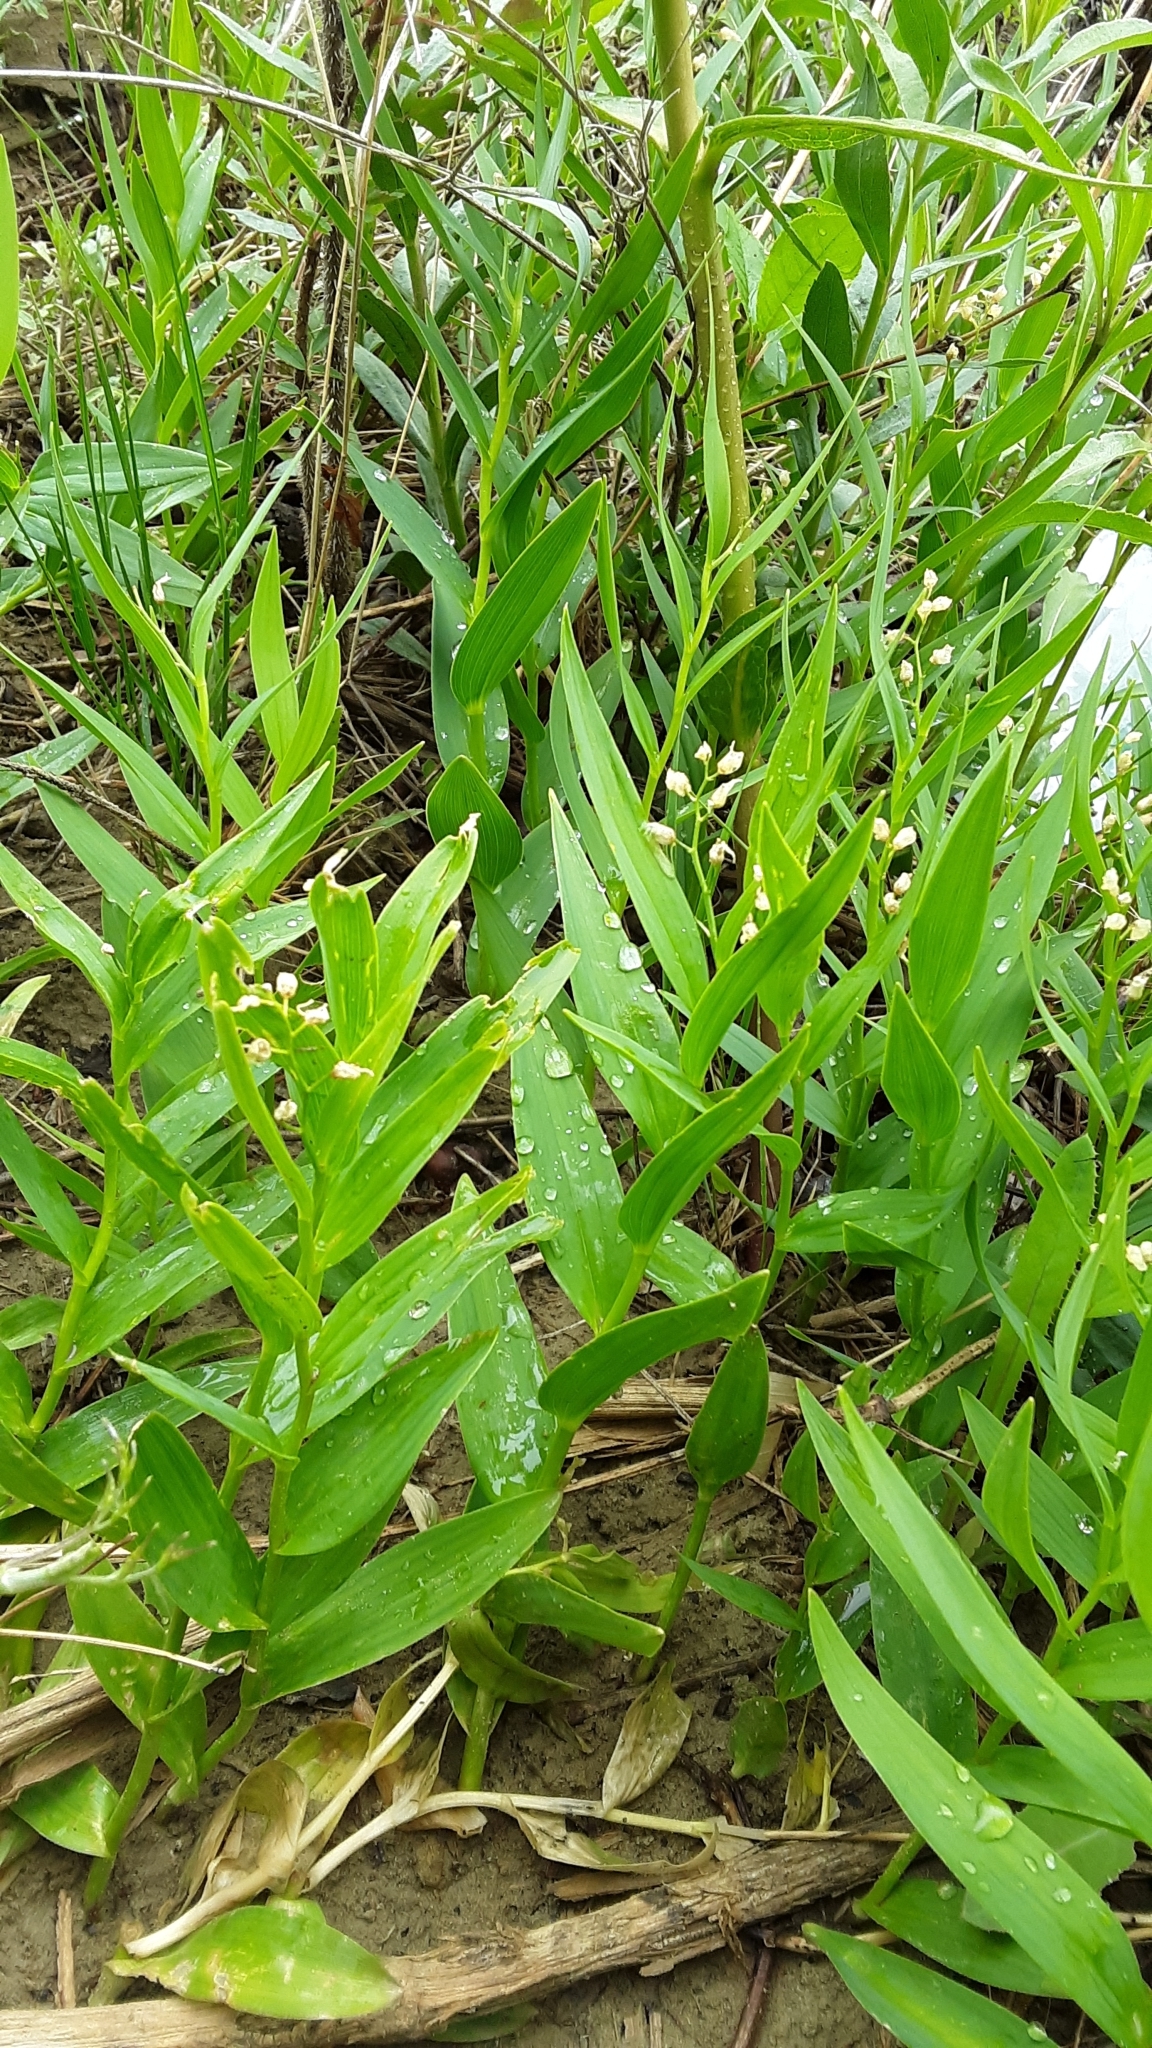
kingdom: Plantae
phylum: Tracheophyta
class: Liliopsida
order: Asparagales
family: Asparagaceae
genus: Maianthemum
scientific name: Maianthemum stellatum
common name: Little false solomon's seal
